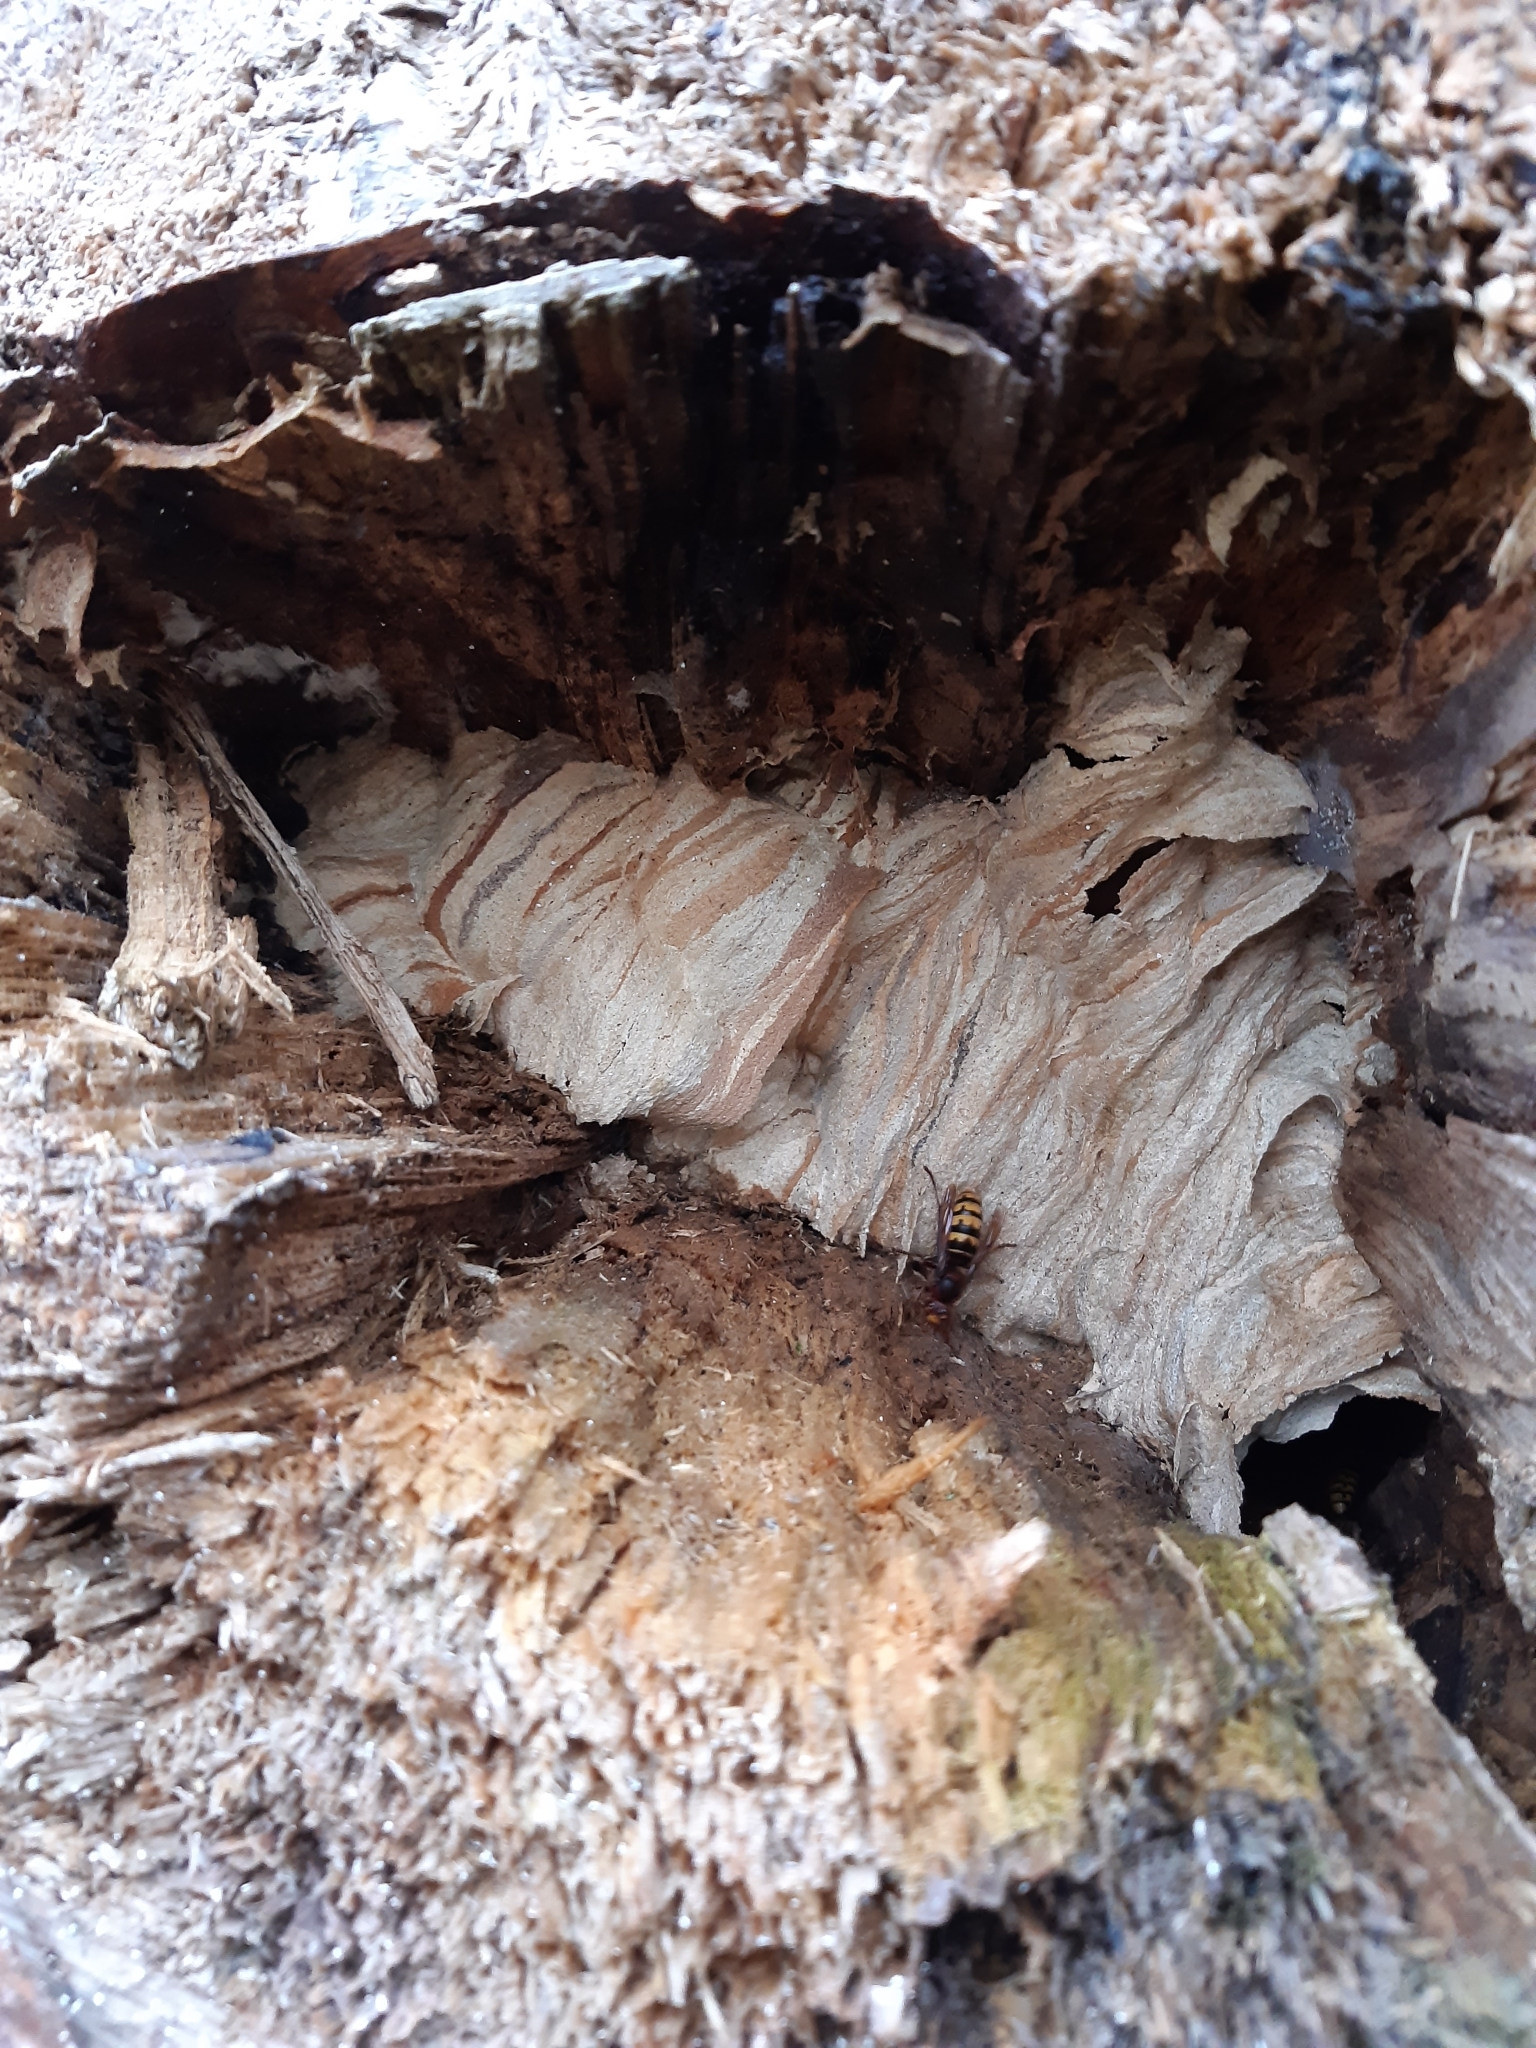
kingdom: Animalia
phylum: Arthropoda
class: Insecta
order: Hymenoptera
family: Vespidae
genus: Vespa
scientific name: Vespa crabro
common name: Hornet
